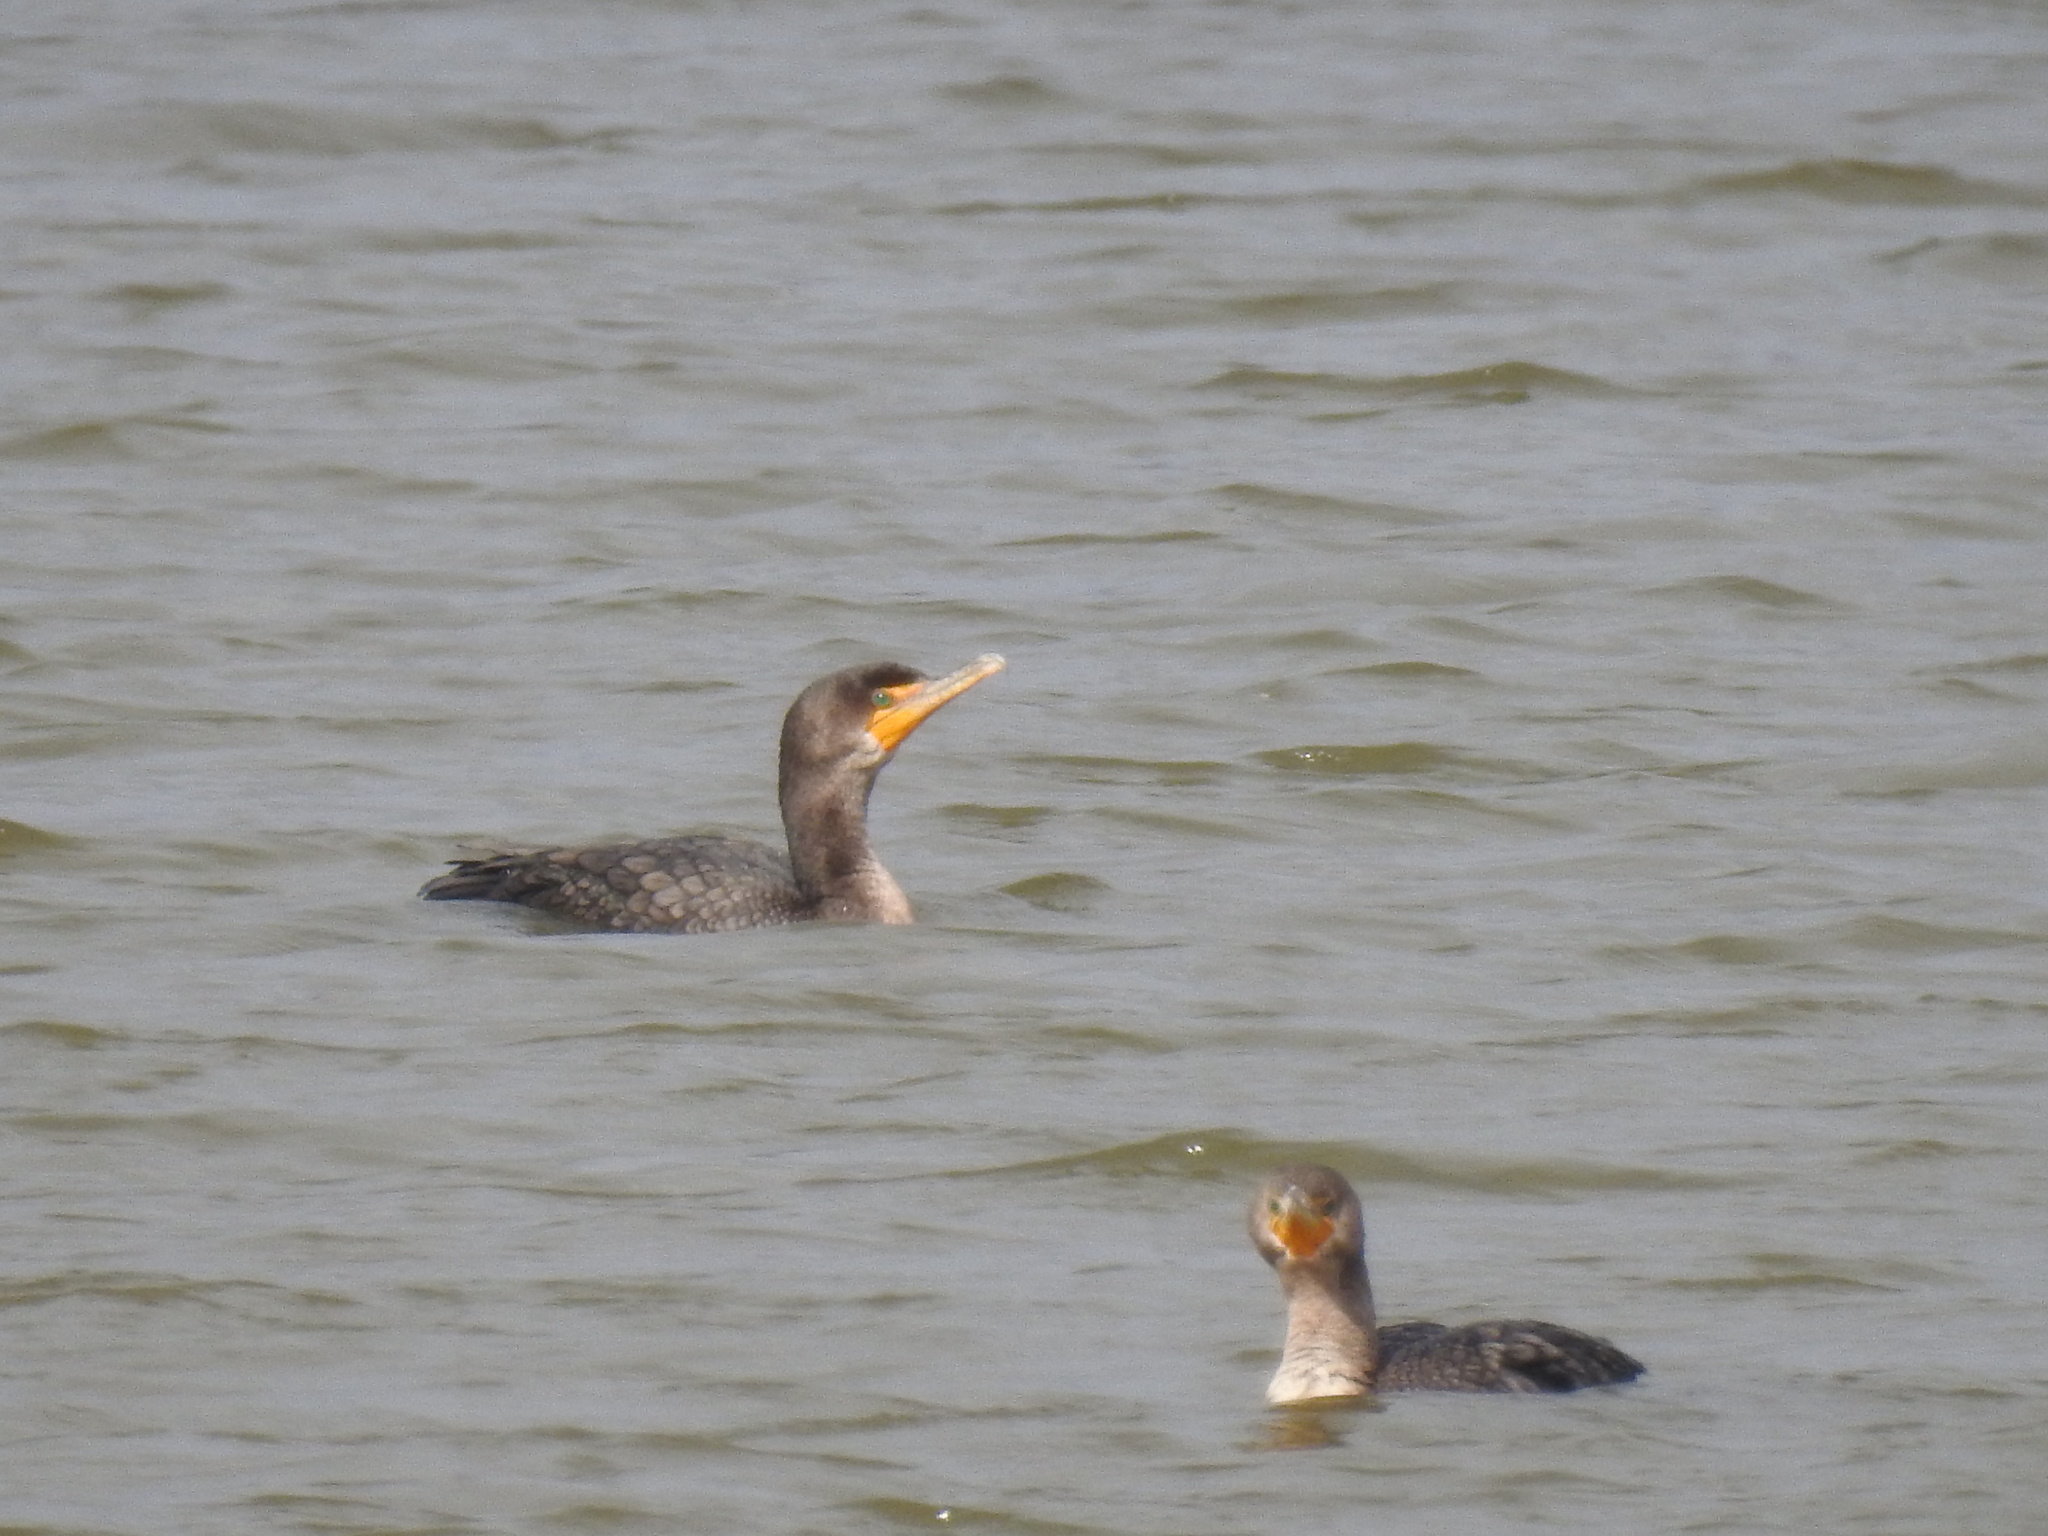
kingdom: Animalia
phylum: Chordata
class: Aves
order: Suliformes
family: Phalacrocoracidae
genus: Phalacrocorax
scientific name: Phalacrocorax auritus
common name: Double-crested cormorant
